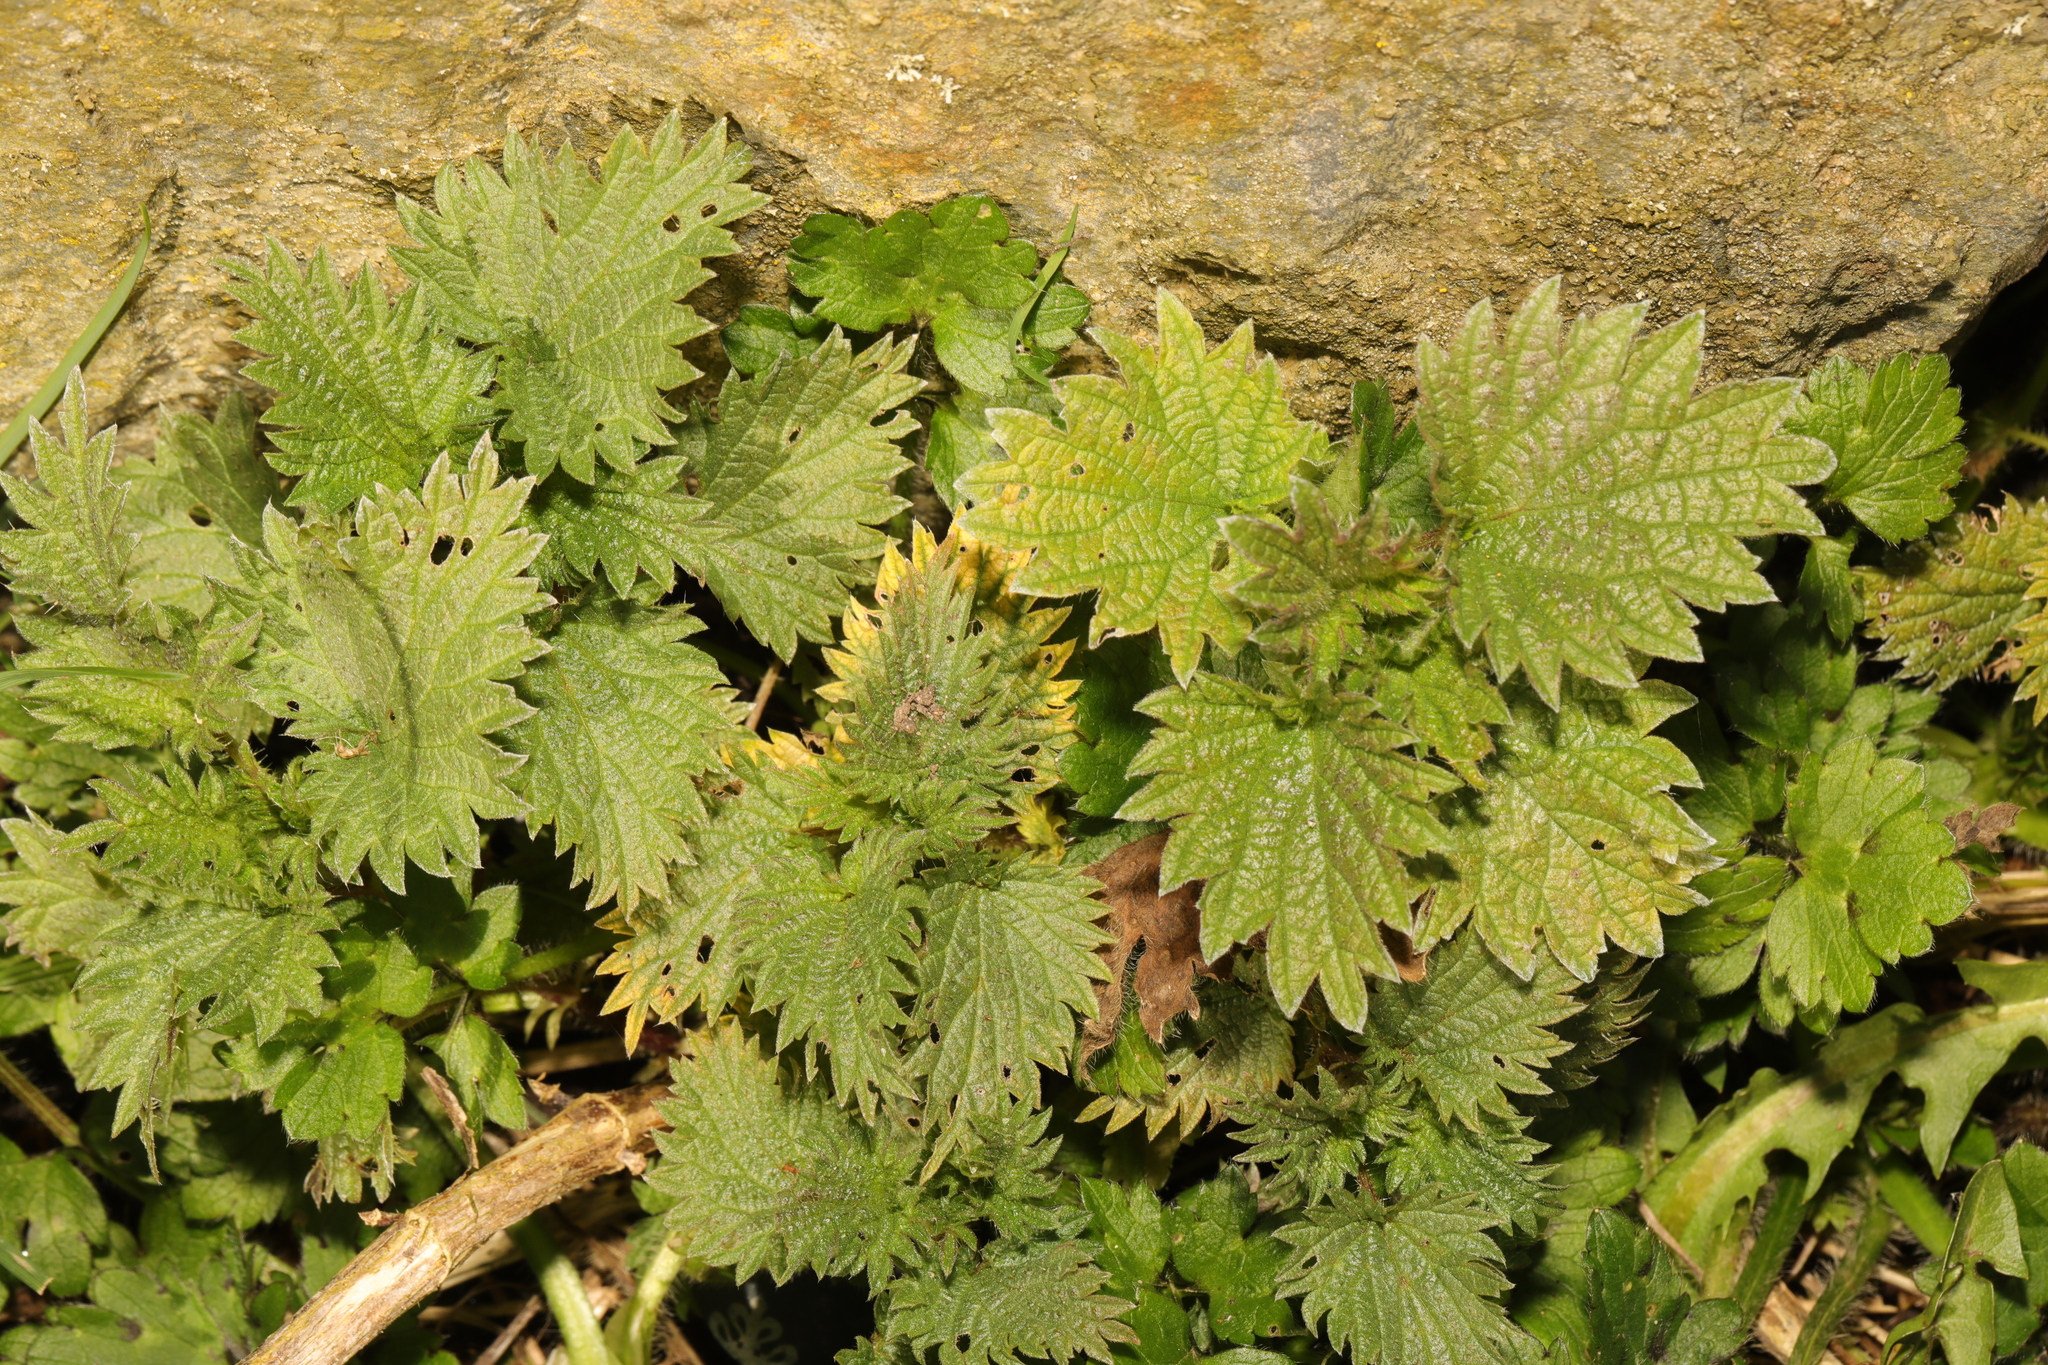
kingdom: Plantae
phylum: Tracheophyta
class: Magnoliopsida
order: Rosales
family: Urticaceae
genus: Urtica
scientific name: Urtica dioica
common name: Common nettle
